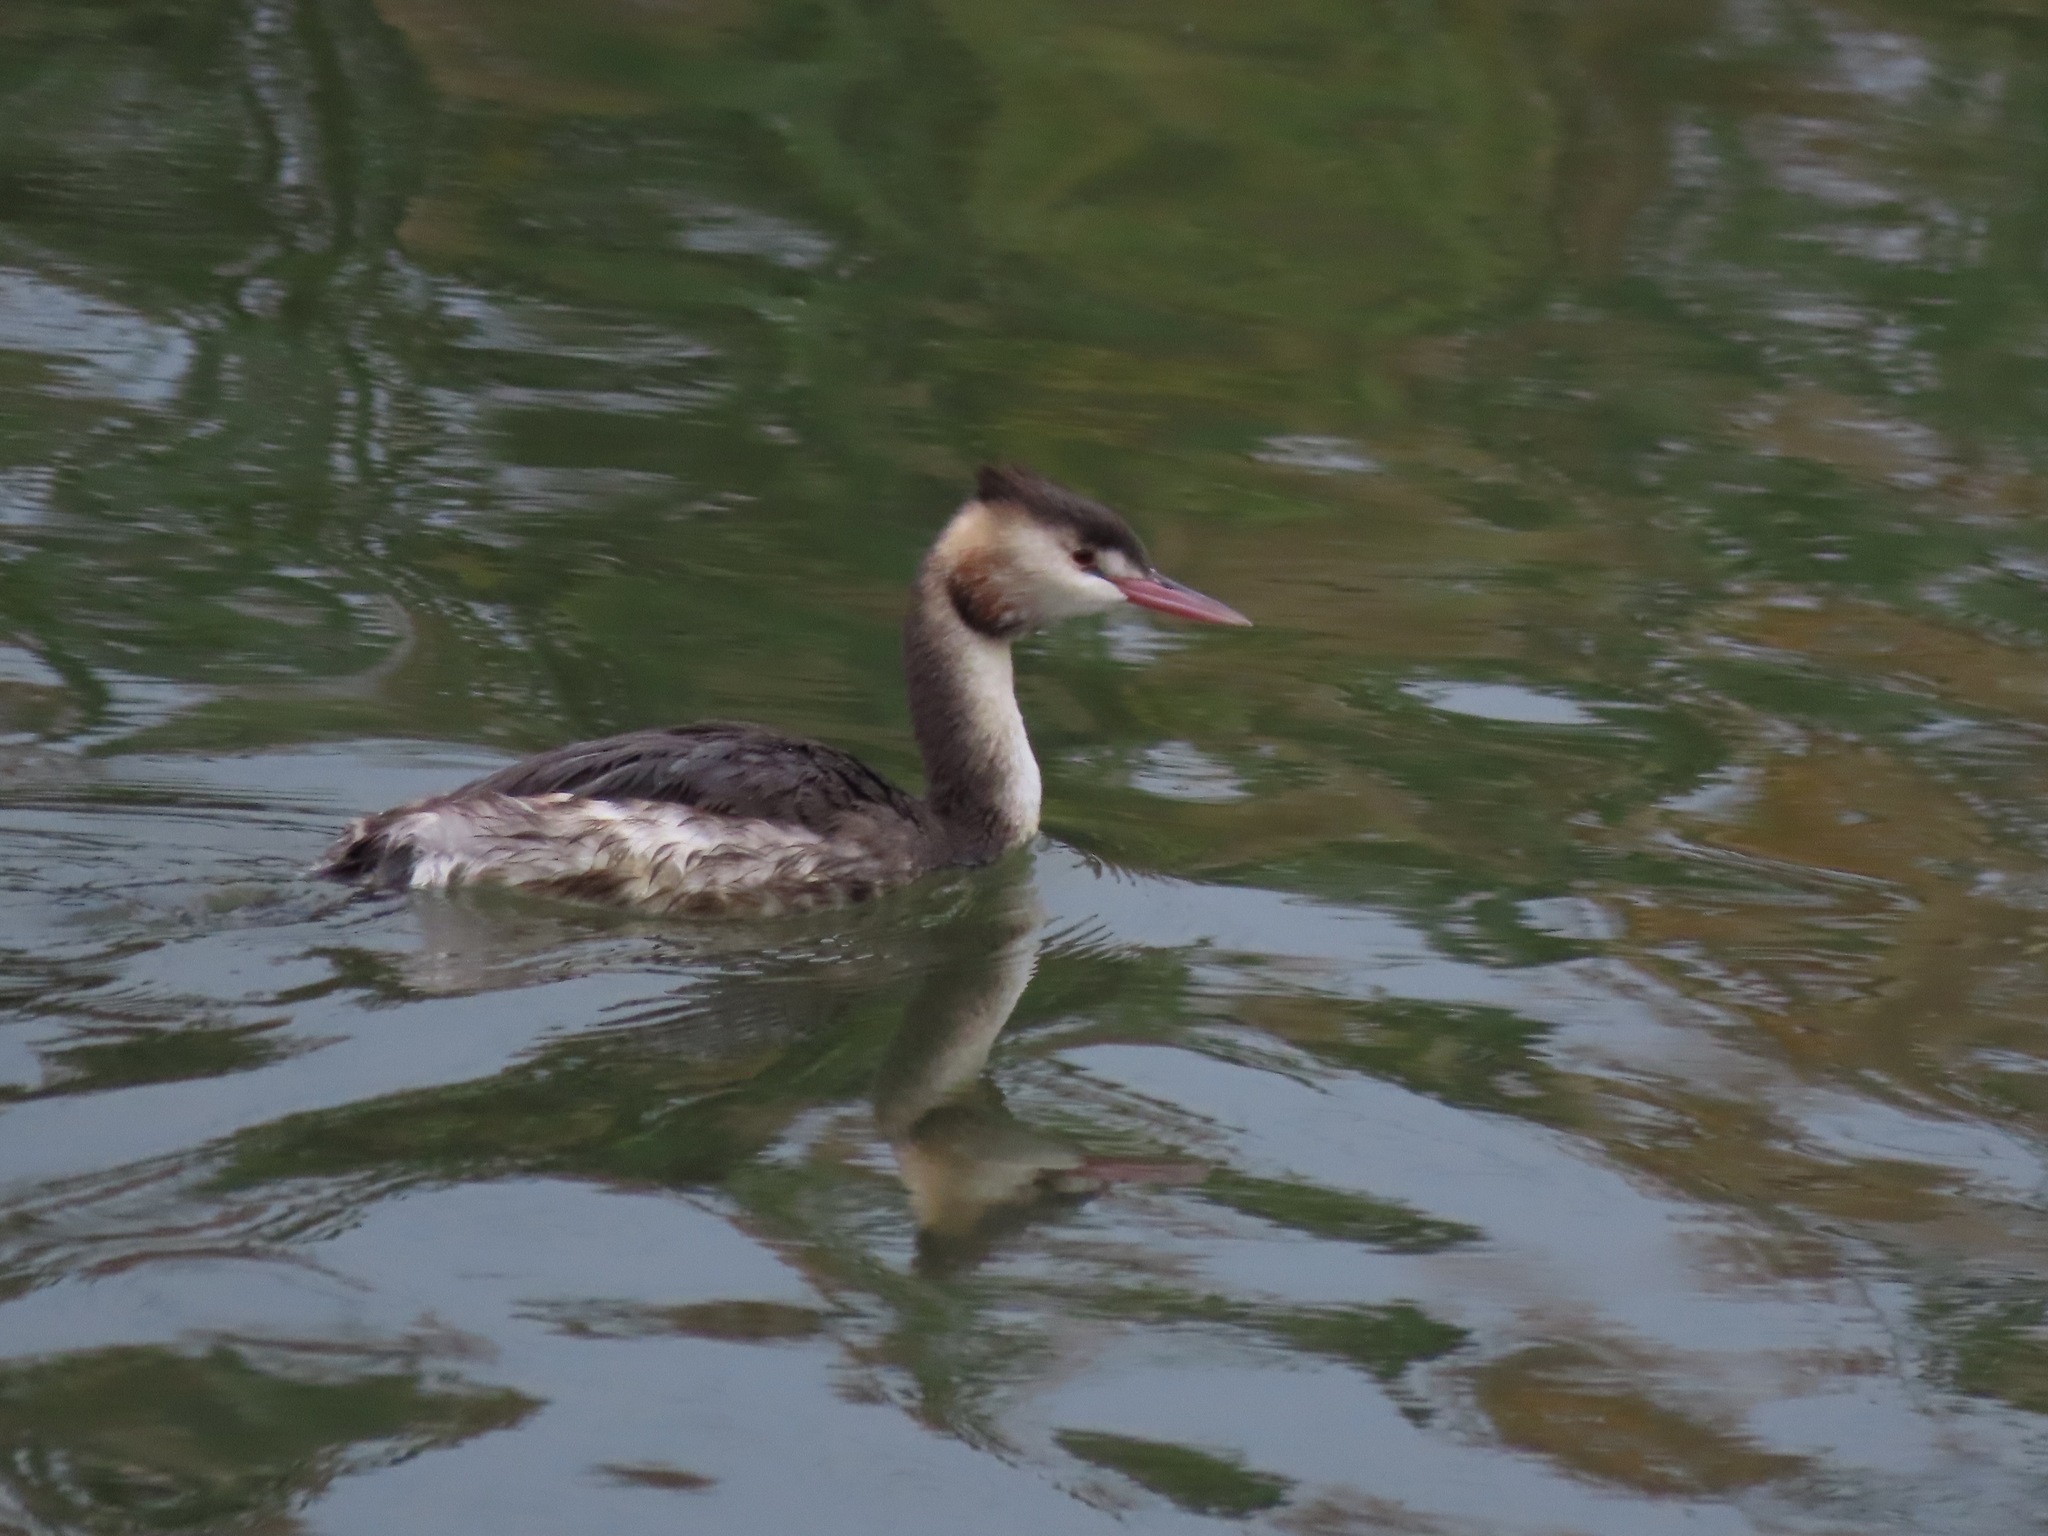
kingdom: Animalia
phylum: Chordata
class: Aves
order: Podicipediformes
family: Podicipedidae
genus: Podiceps
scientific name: Podiceps cristatus
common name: Great crested grebe
